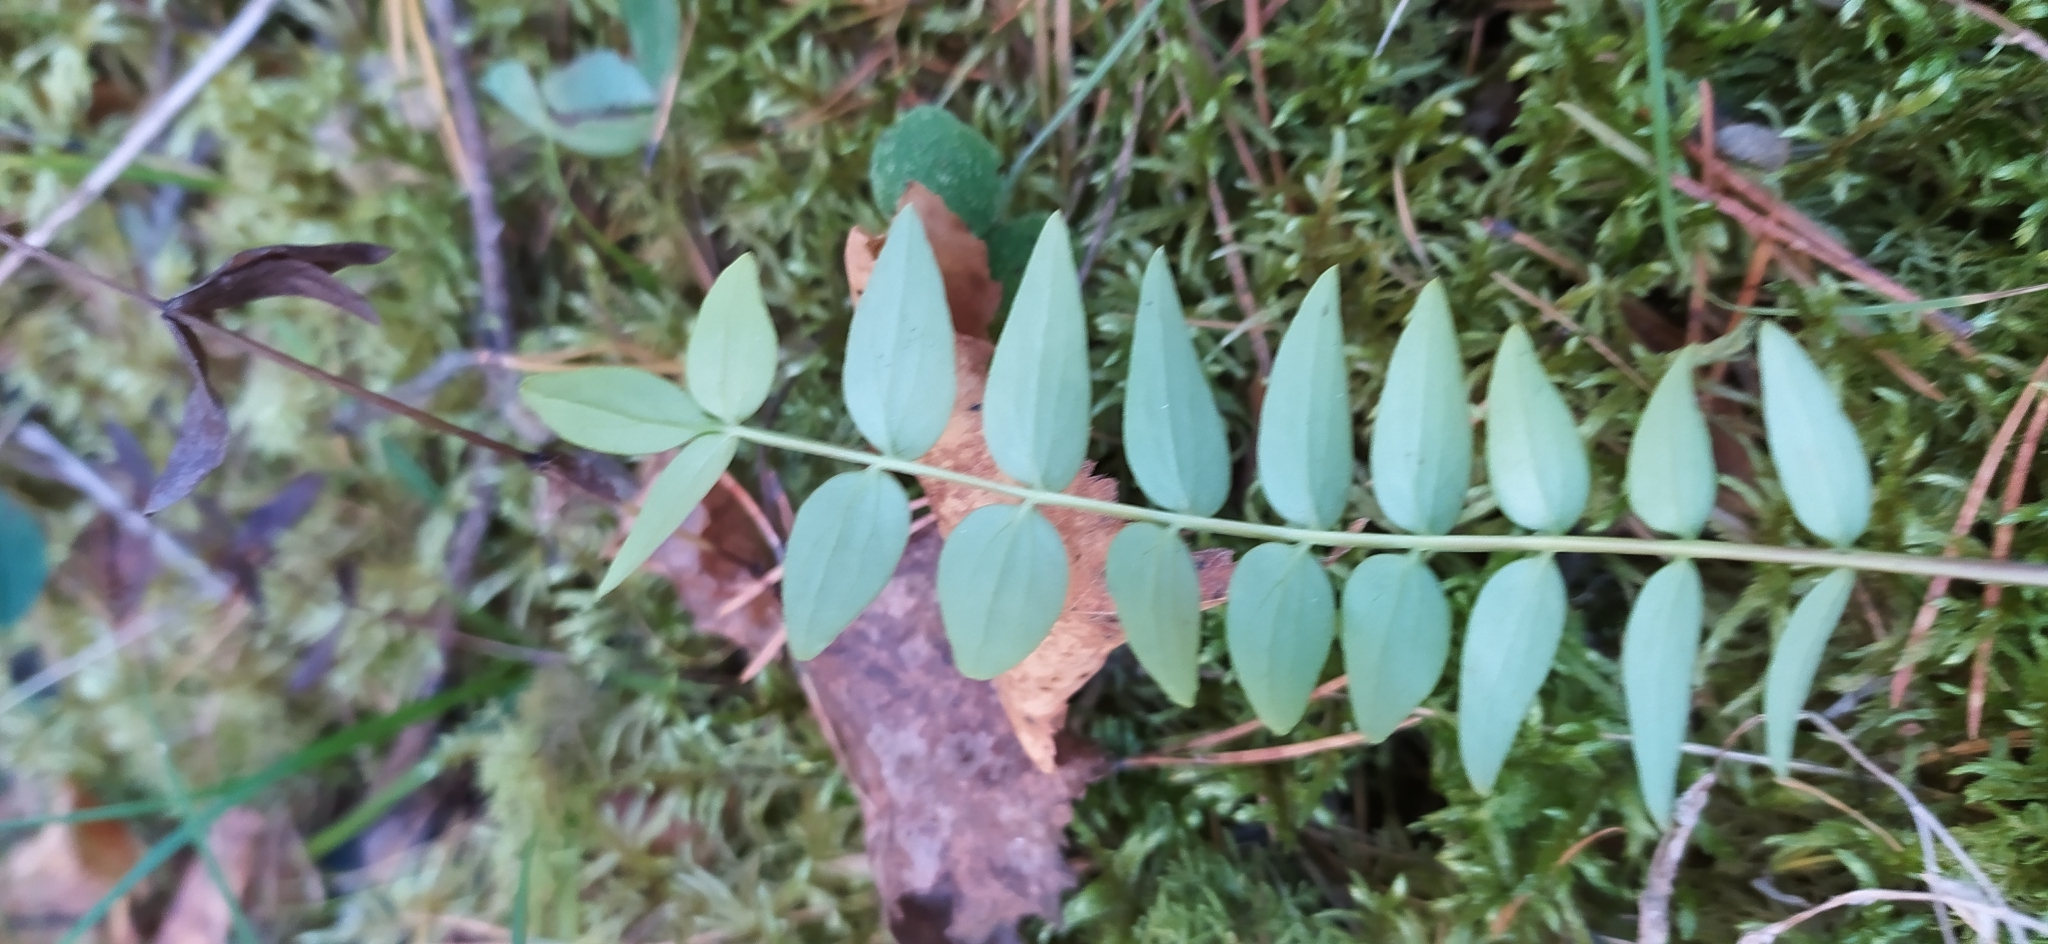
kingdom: Plantae
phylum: Tracheophyta
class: Magnoliopsida
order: Ericales
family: Polemoniaceae
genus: Polemonium
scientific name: Polemonium caeruleum
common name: Jacob's-ladder
